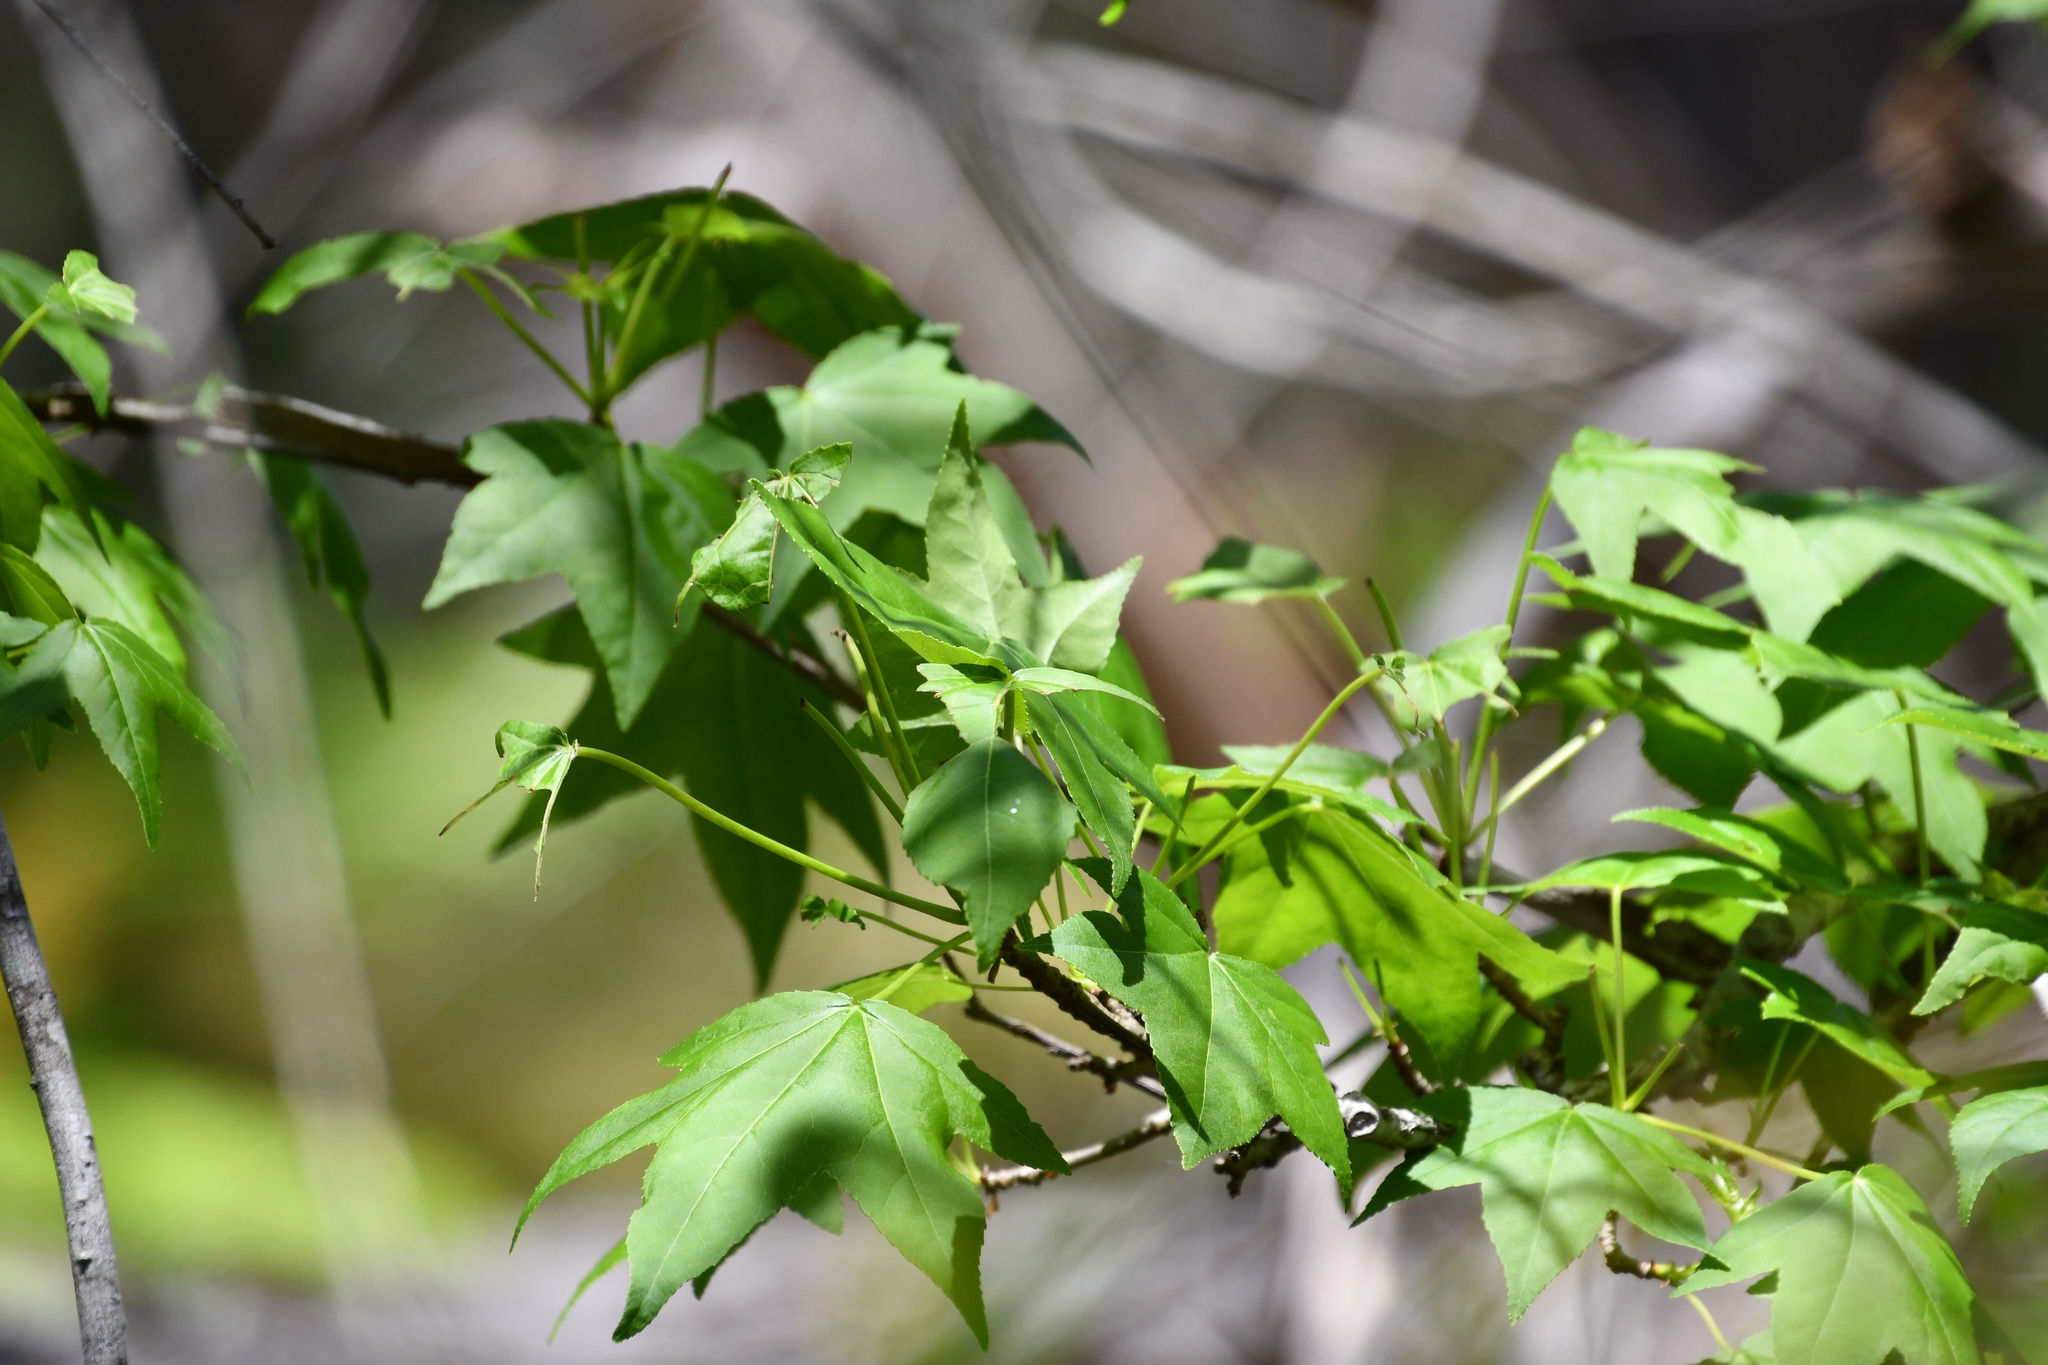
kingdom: Plantae
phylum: Tracheophyta
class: Magnoliopsida
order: Saxifragales
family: Altingiaceae
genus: Liquidambar
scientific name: Liquidambar styraciflua
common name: Sweet gum
